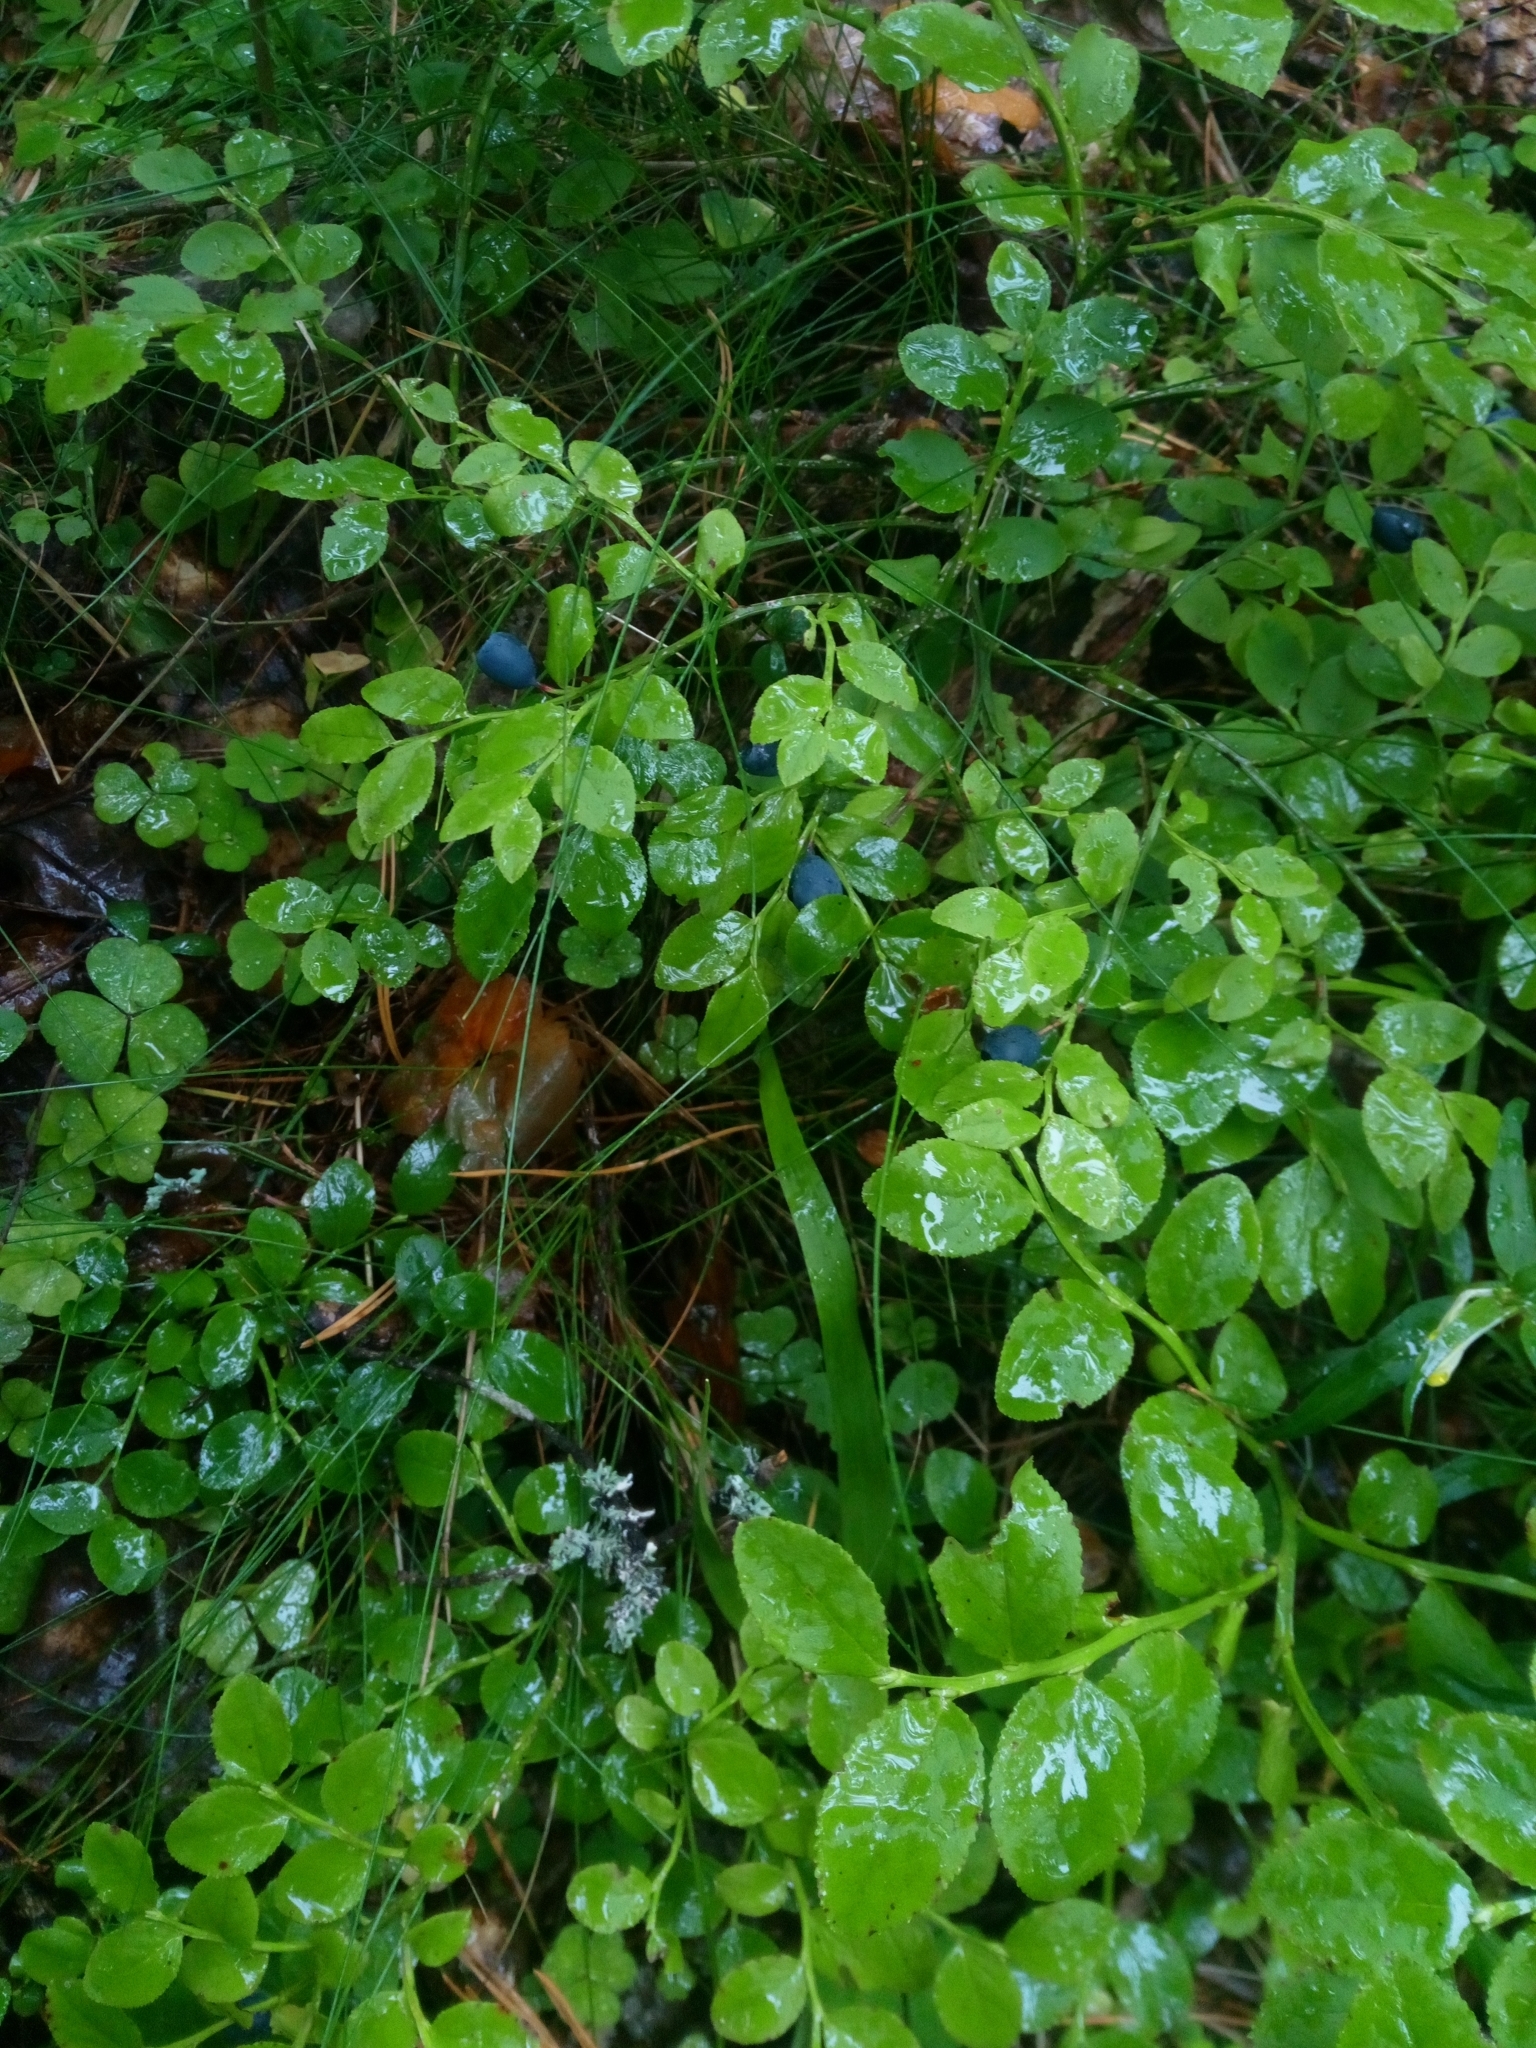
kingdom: Plantae
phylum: Tracheophyta
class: Magnoliopsida
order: Ericales
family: Ericaceae
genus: Vaccinium
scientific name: Vaccinium myrtillus
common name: Bilberry
